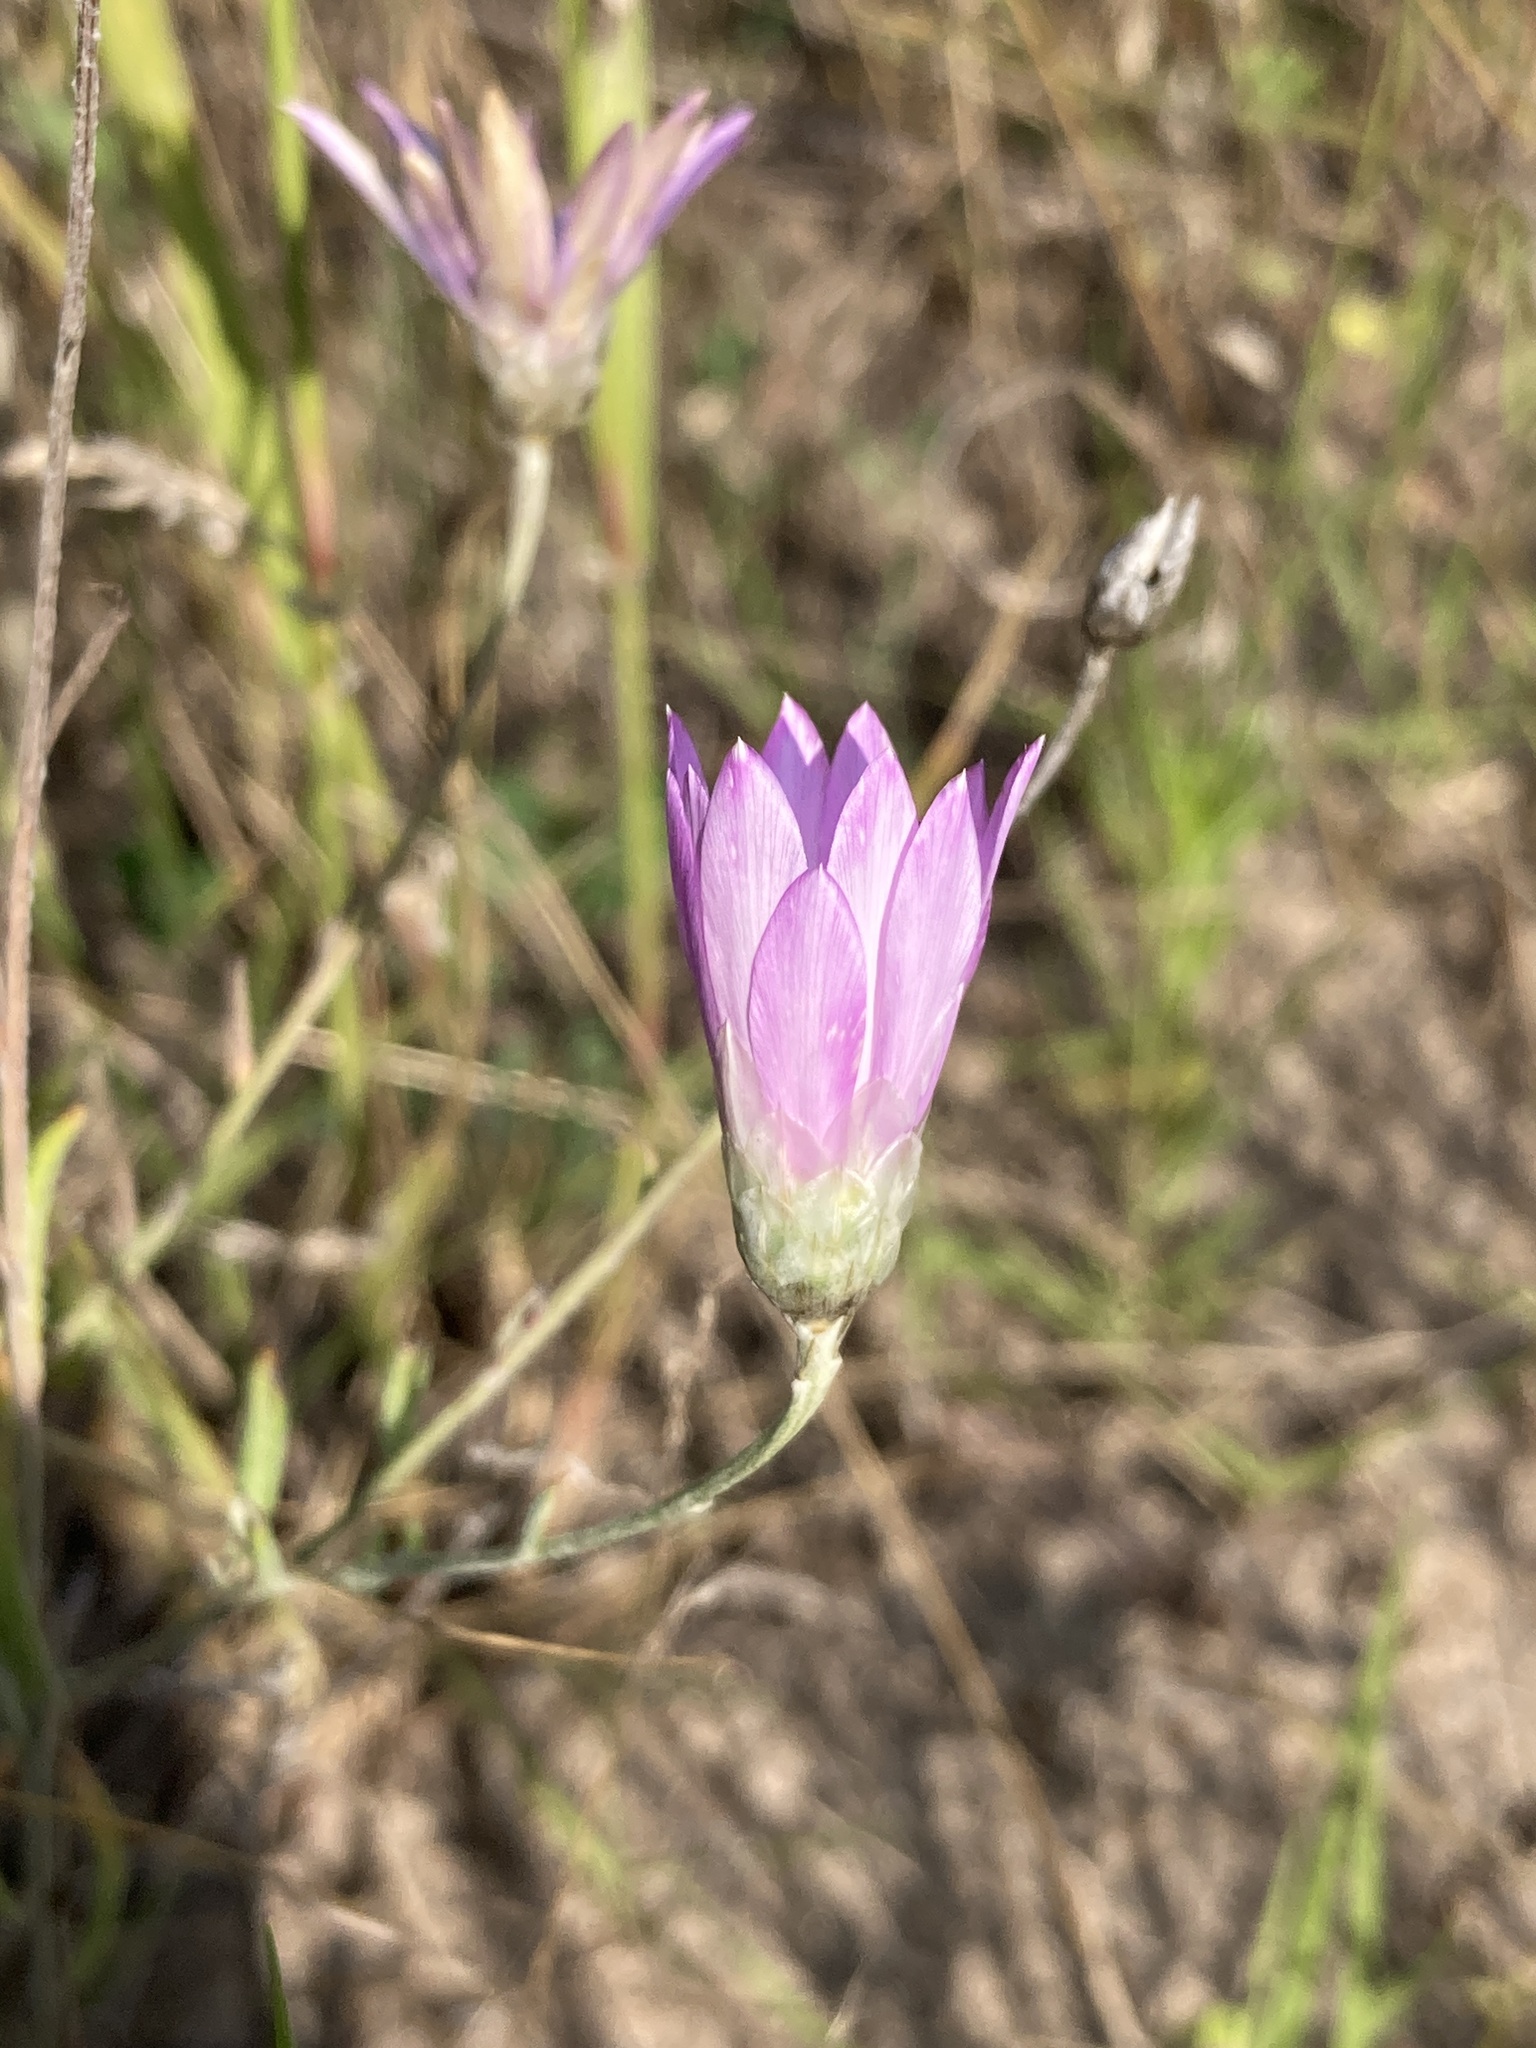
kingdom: Plantae
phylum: Tracheophyta
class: Magnoliopsida
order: Asterales
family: Asteraceae
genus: Xeranthemum
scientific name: Xeranthemum annuum
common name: Immortelle
